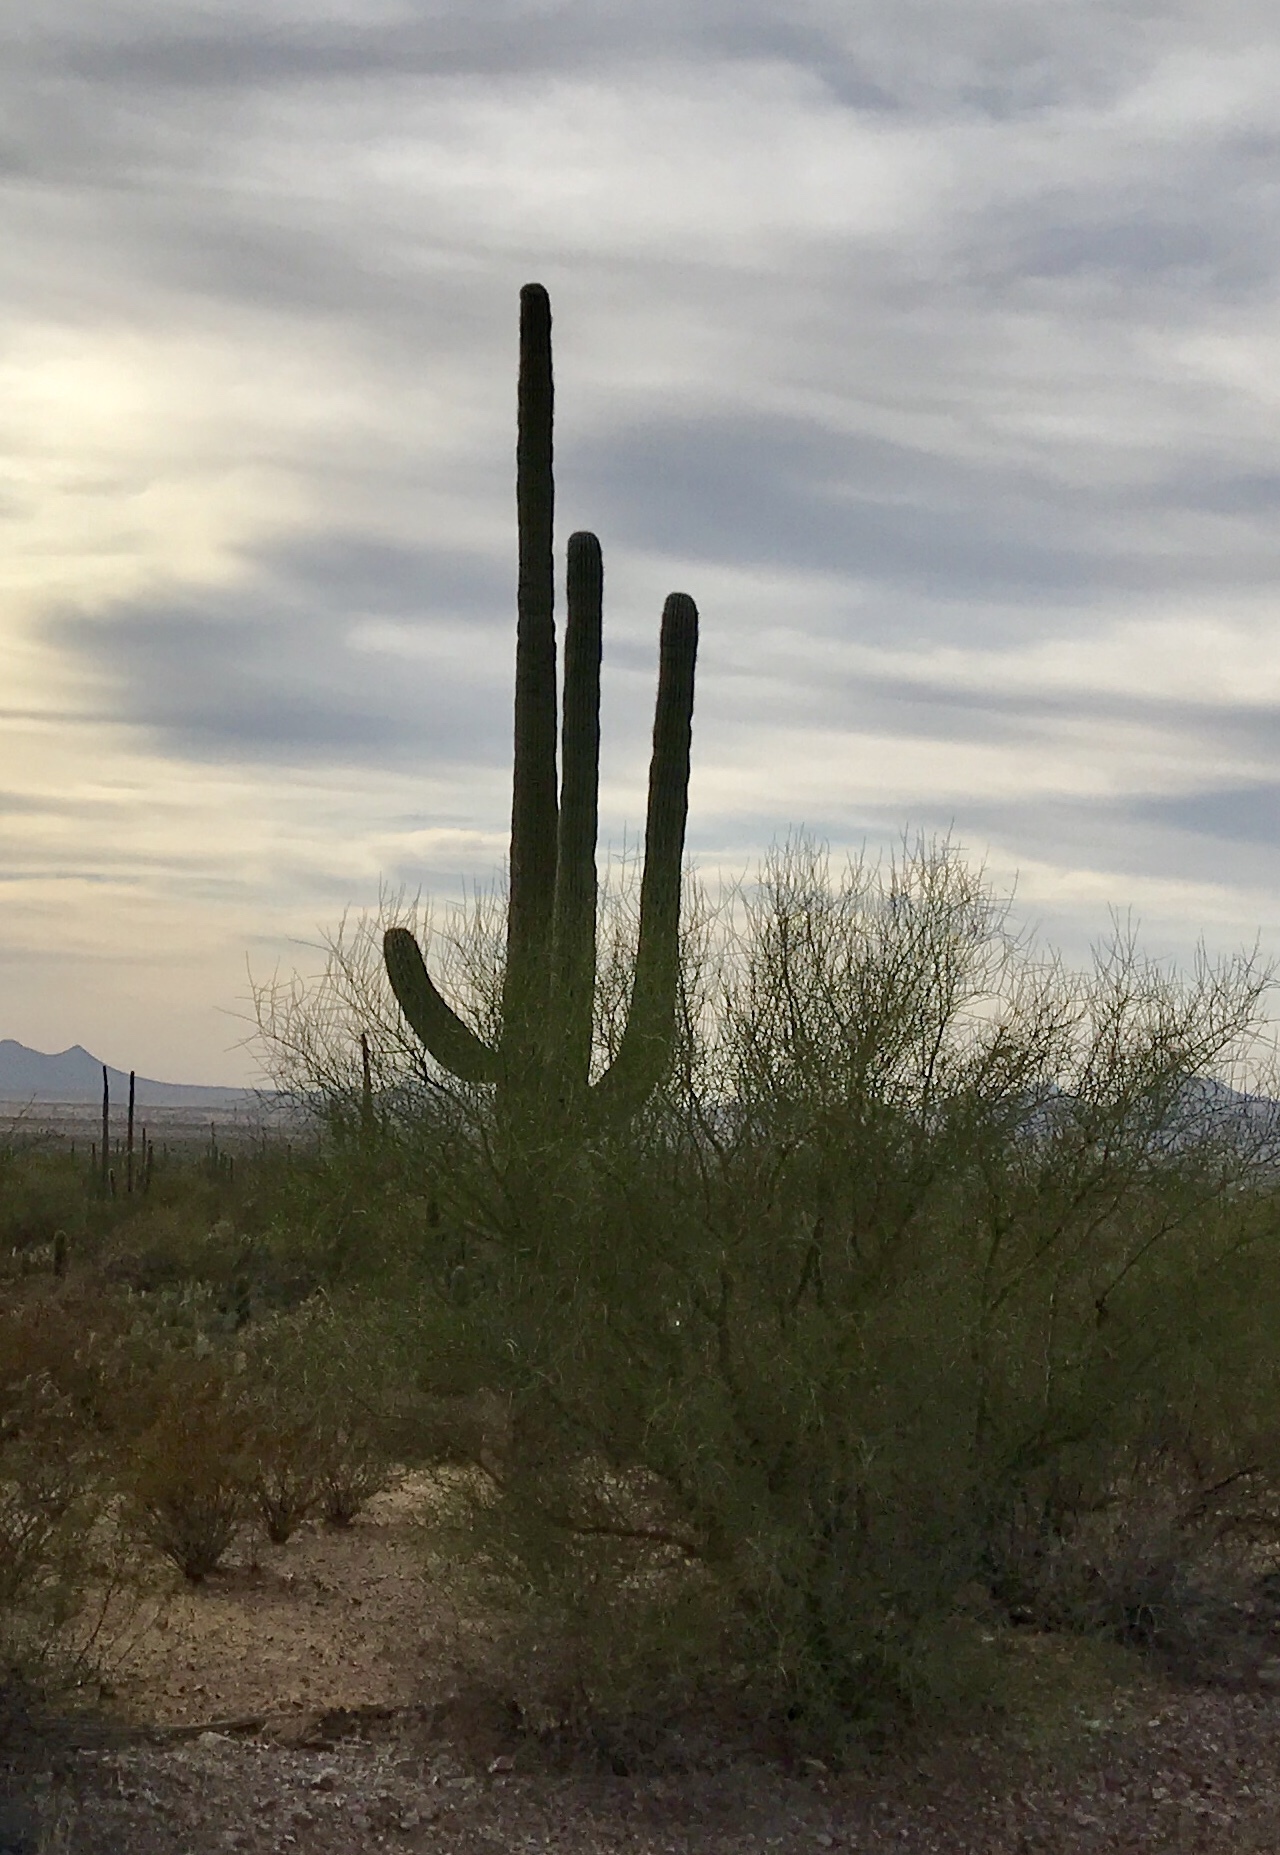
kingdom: Plantae
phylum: Tracheophyta
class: Magnoliopsida
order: Caryophyllales
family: Cactaceae
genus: Carnegiea
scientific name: Carnegiea gigantea
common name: Saguaro
